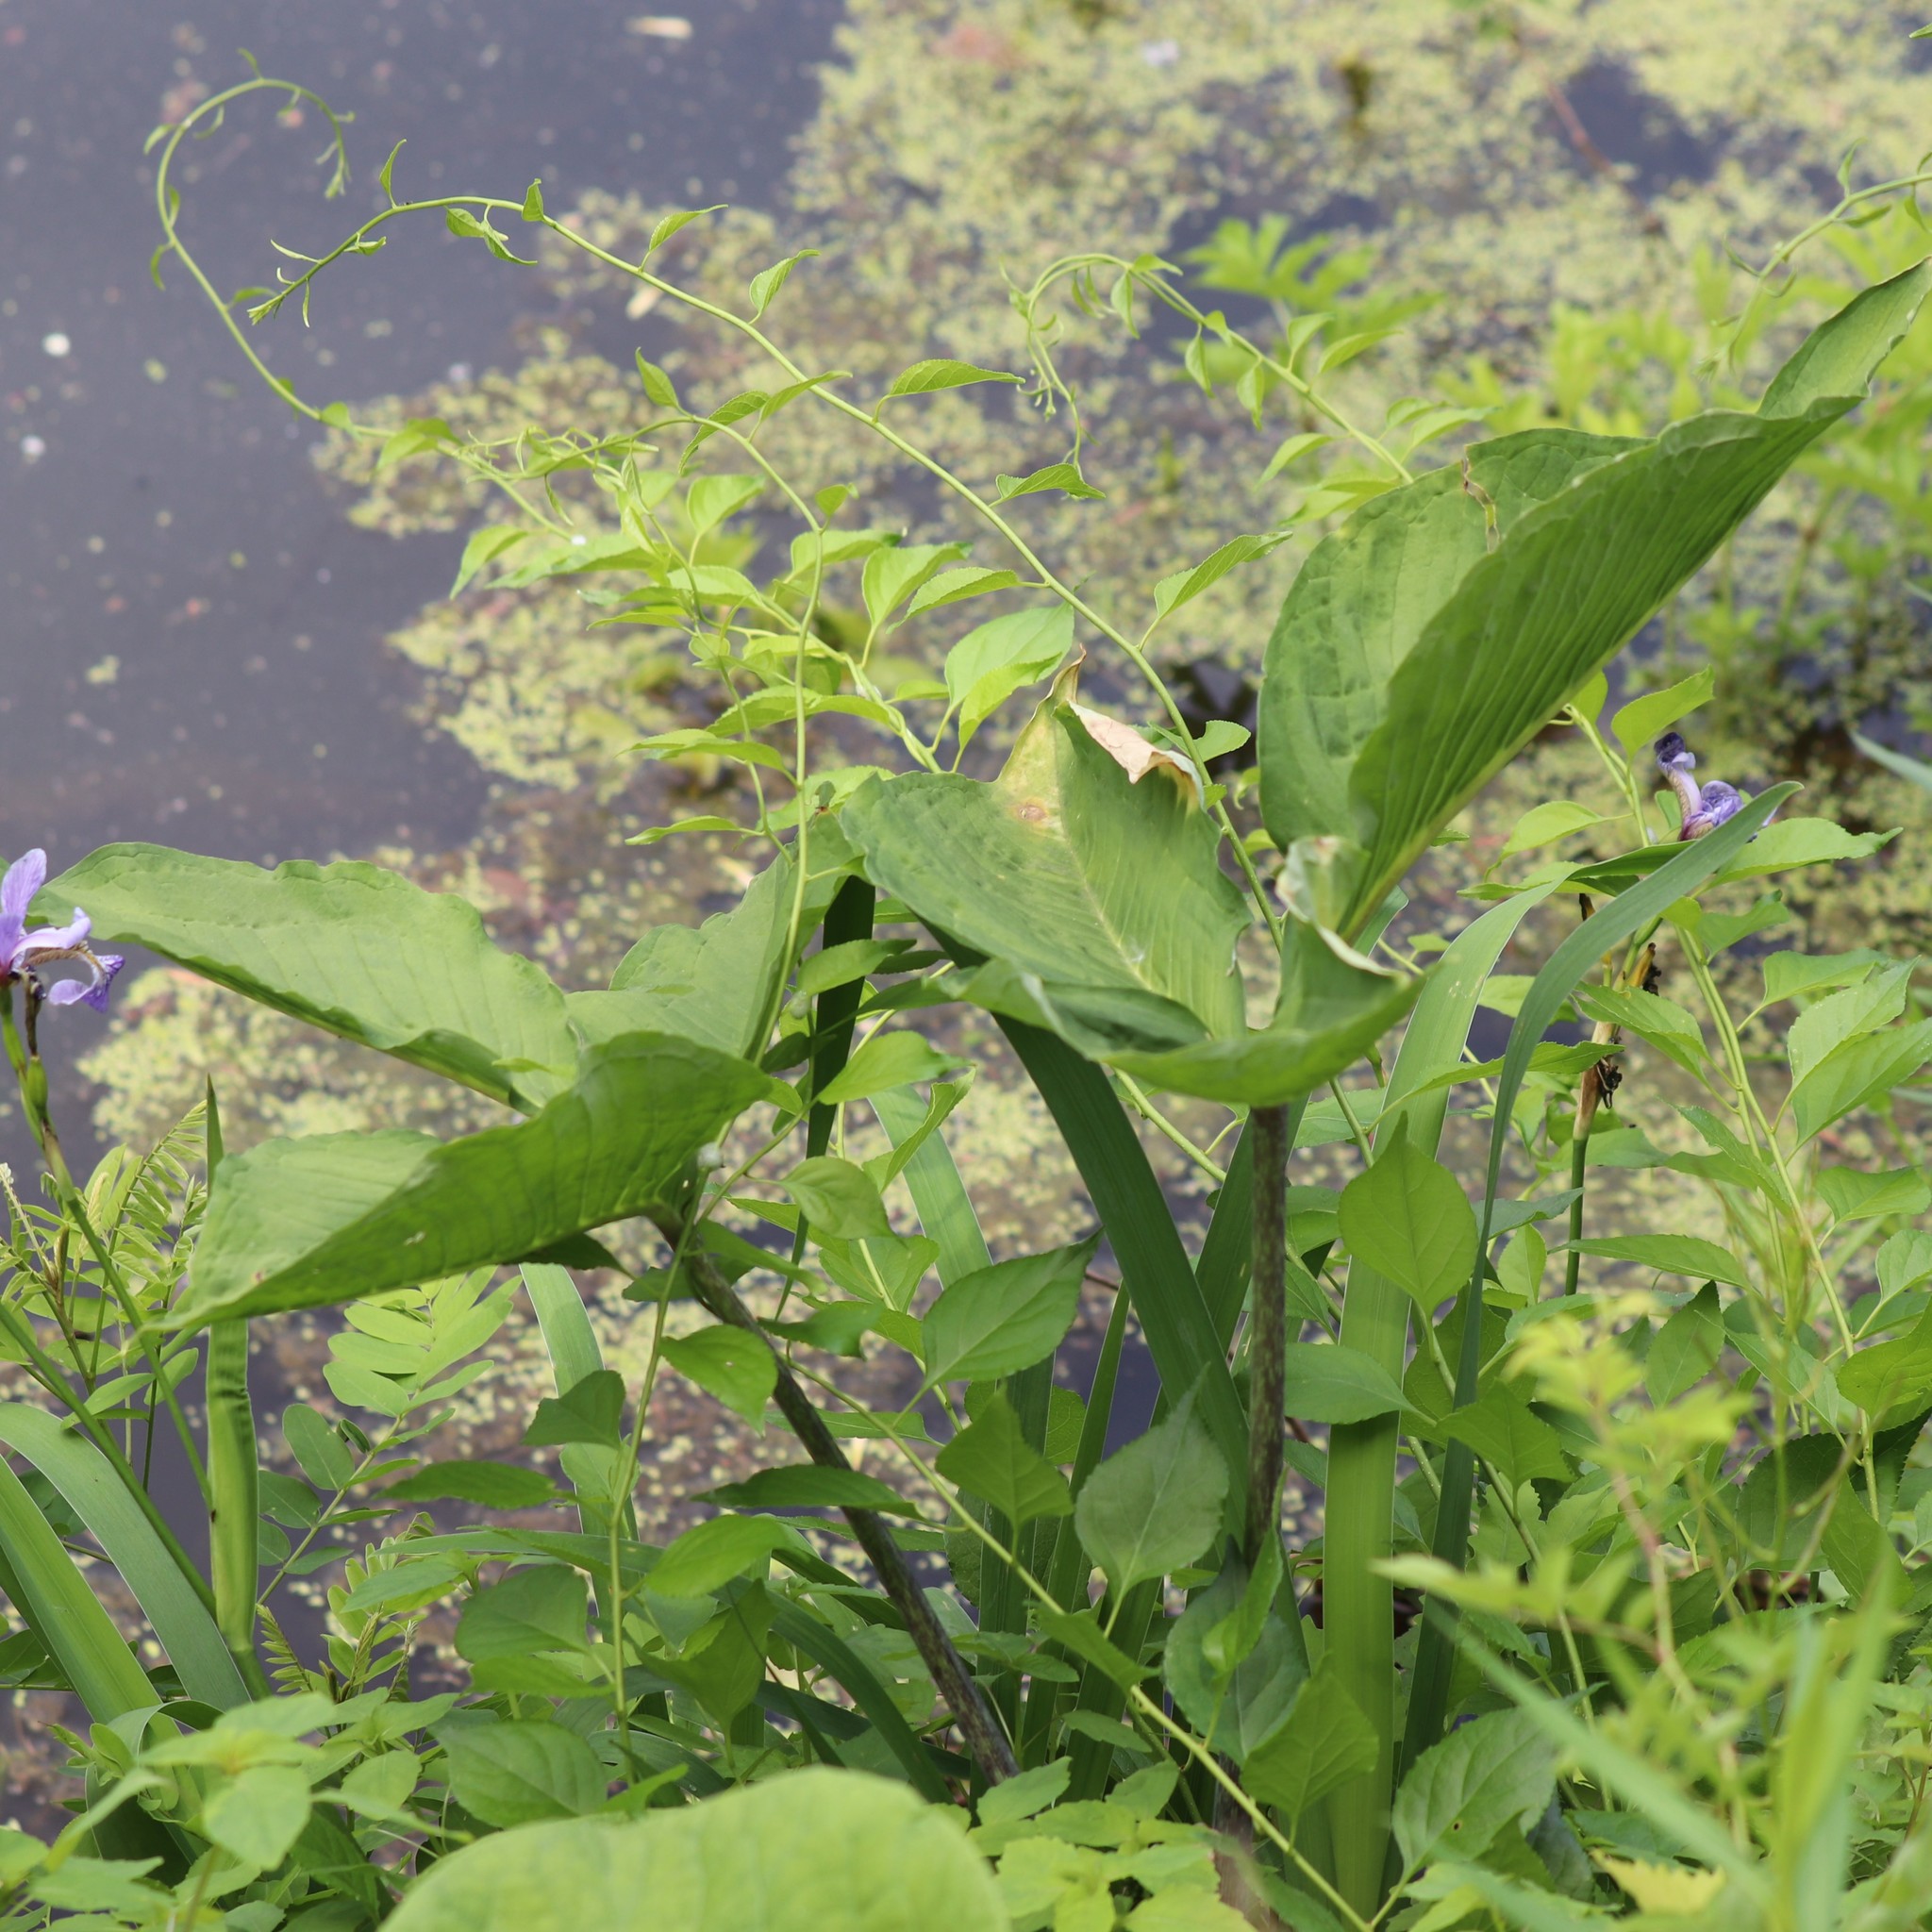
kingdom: Plantae
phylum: Tracheophyta
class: Liliopsida
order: Alismatales
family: Araceae
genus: Arisaema
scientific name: Arisaema triphyllum
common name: Jack-in-the-pulpit
